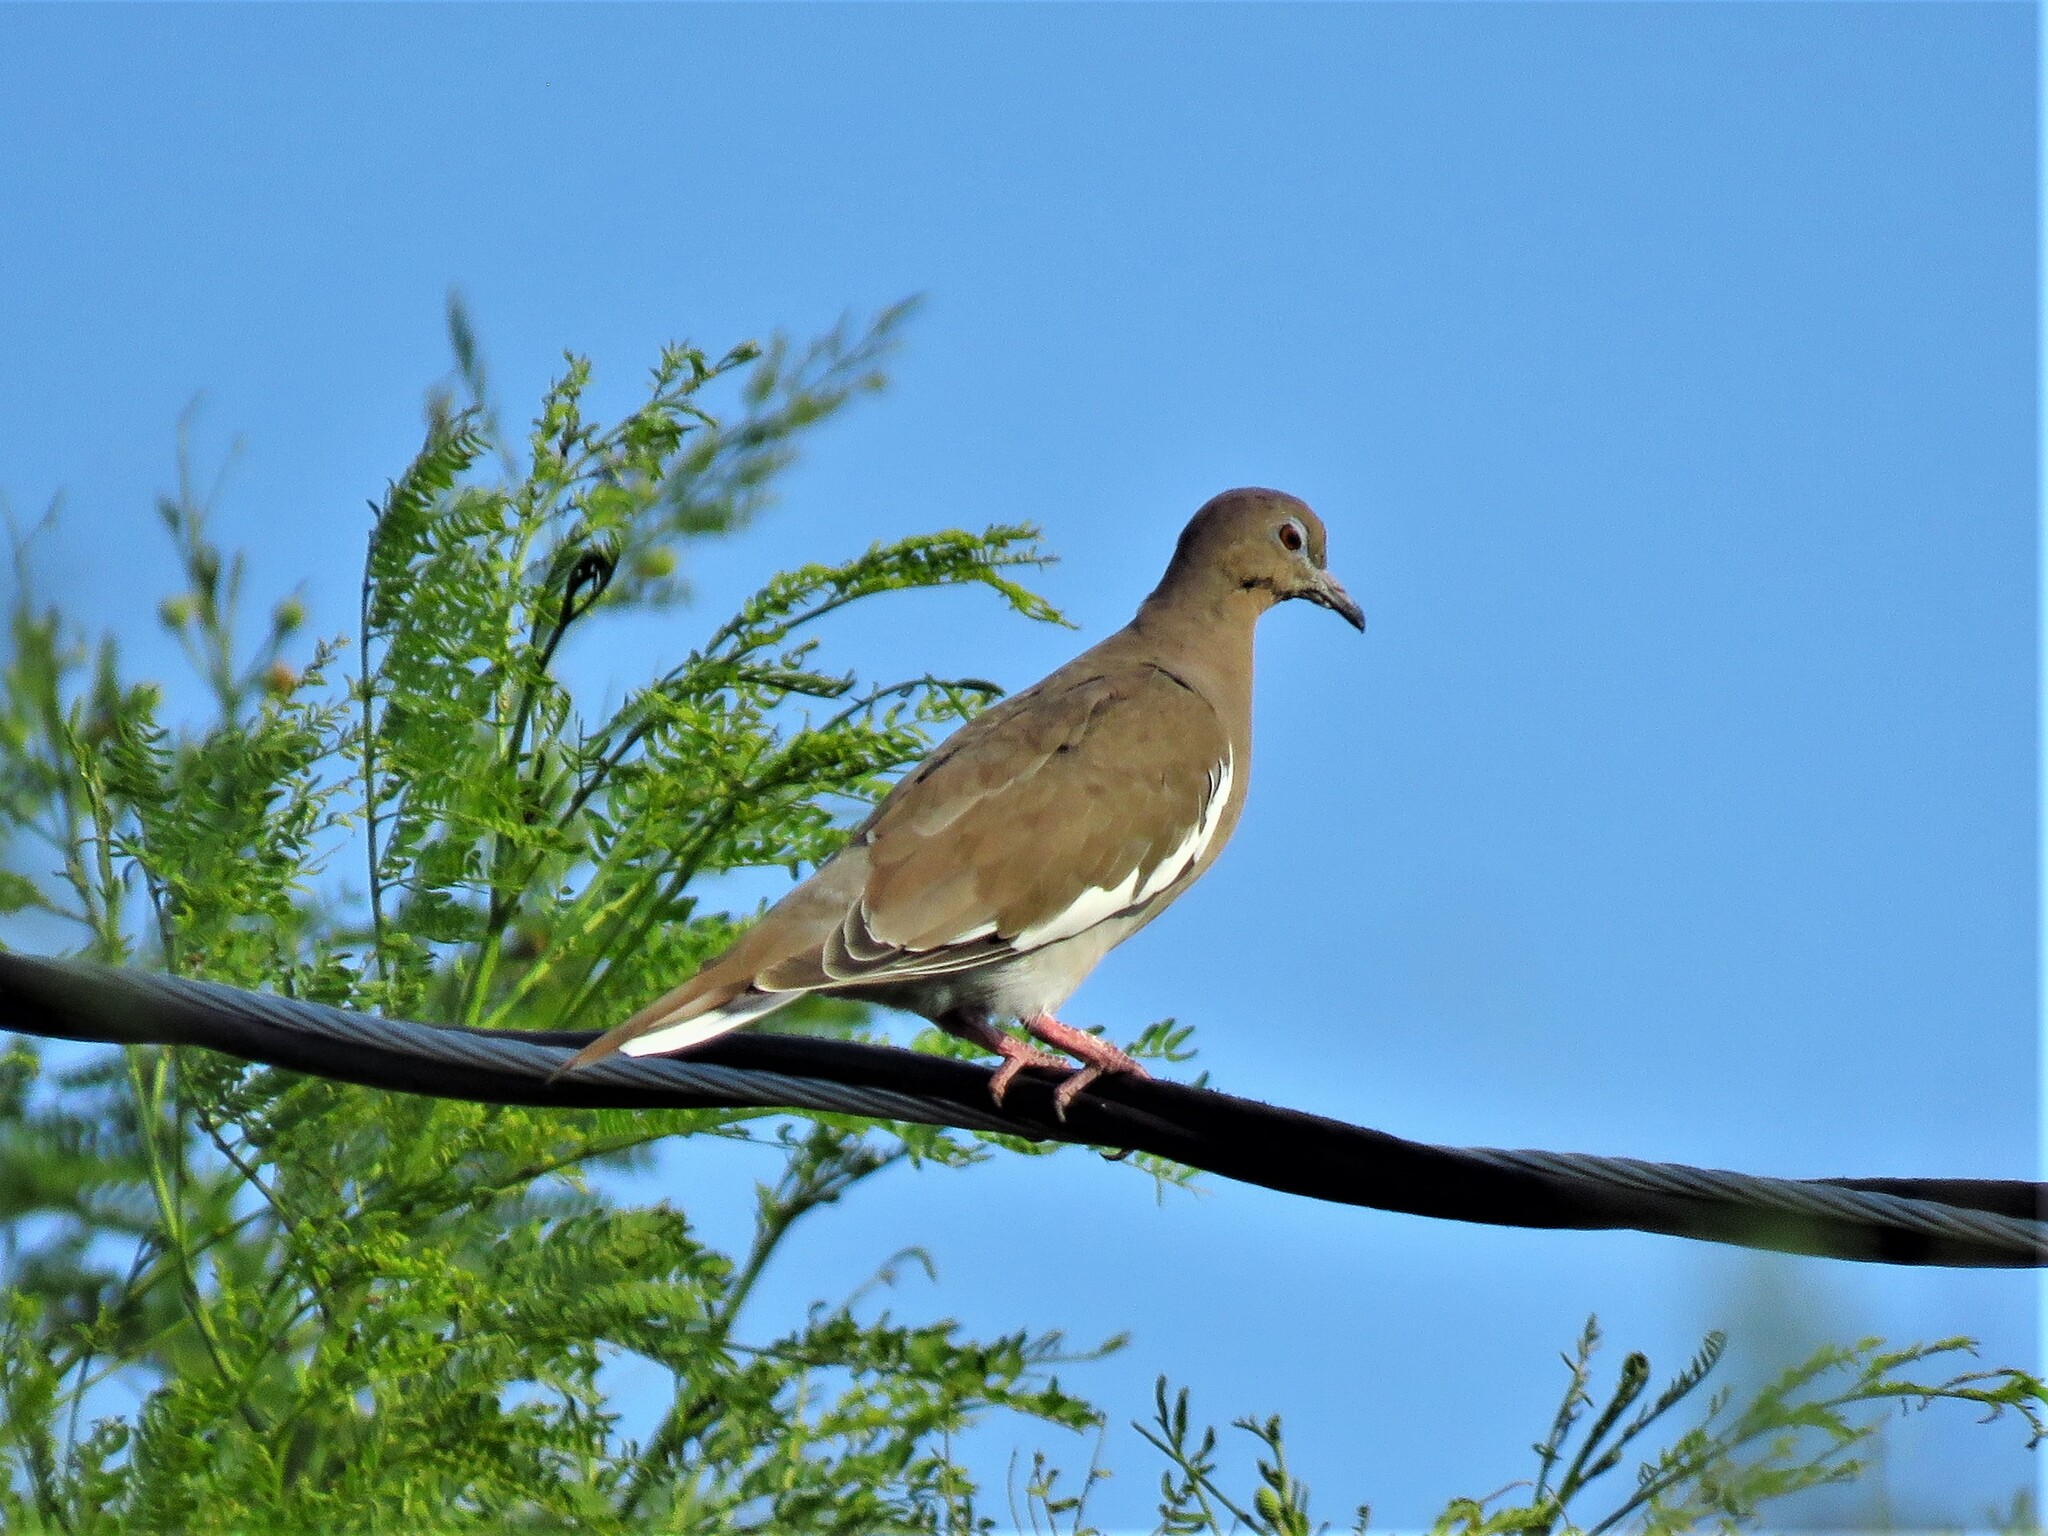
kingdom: Animalia
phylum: Chordata
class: Aves
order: Columbiformes
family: Columbidae
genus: Zenaida
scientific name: Zenaida asiatica
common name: White-winged dove
